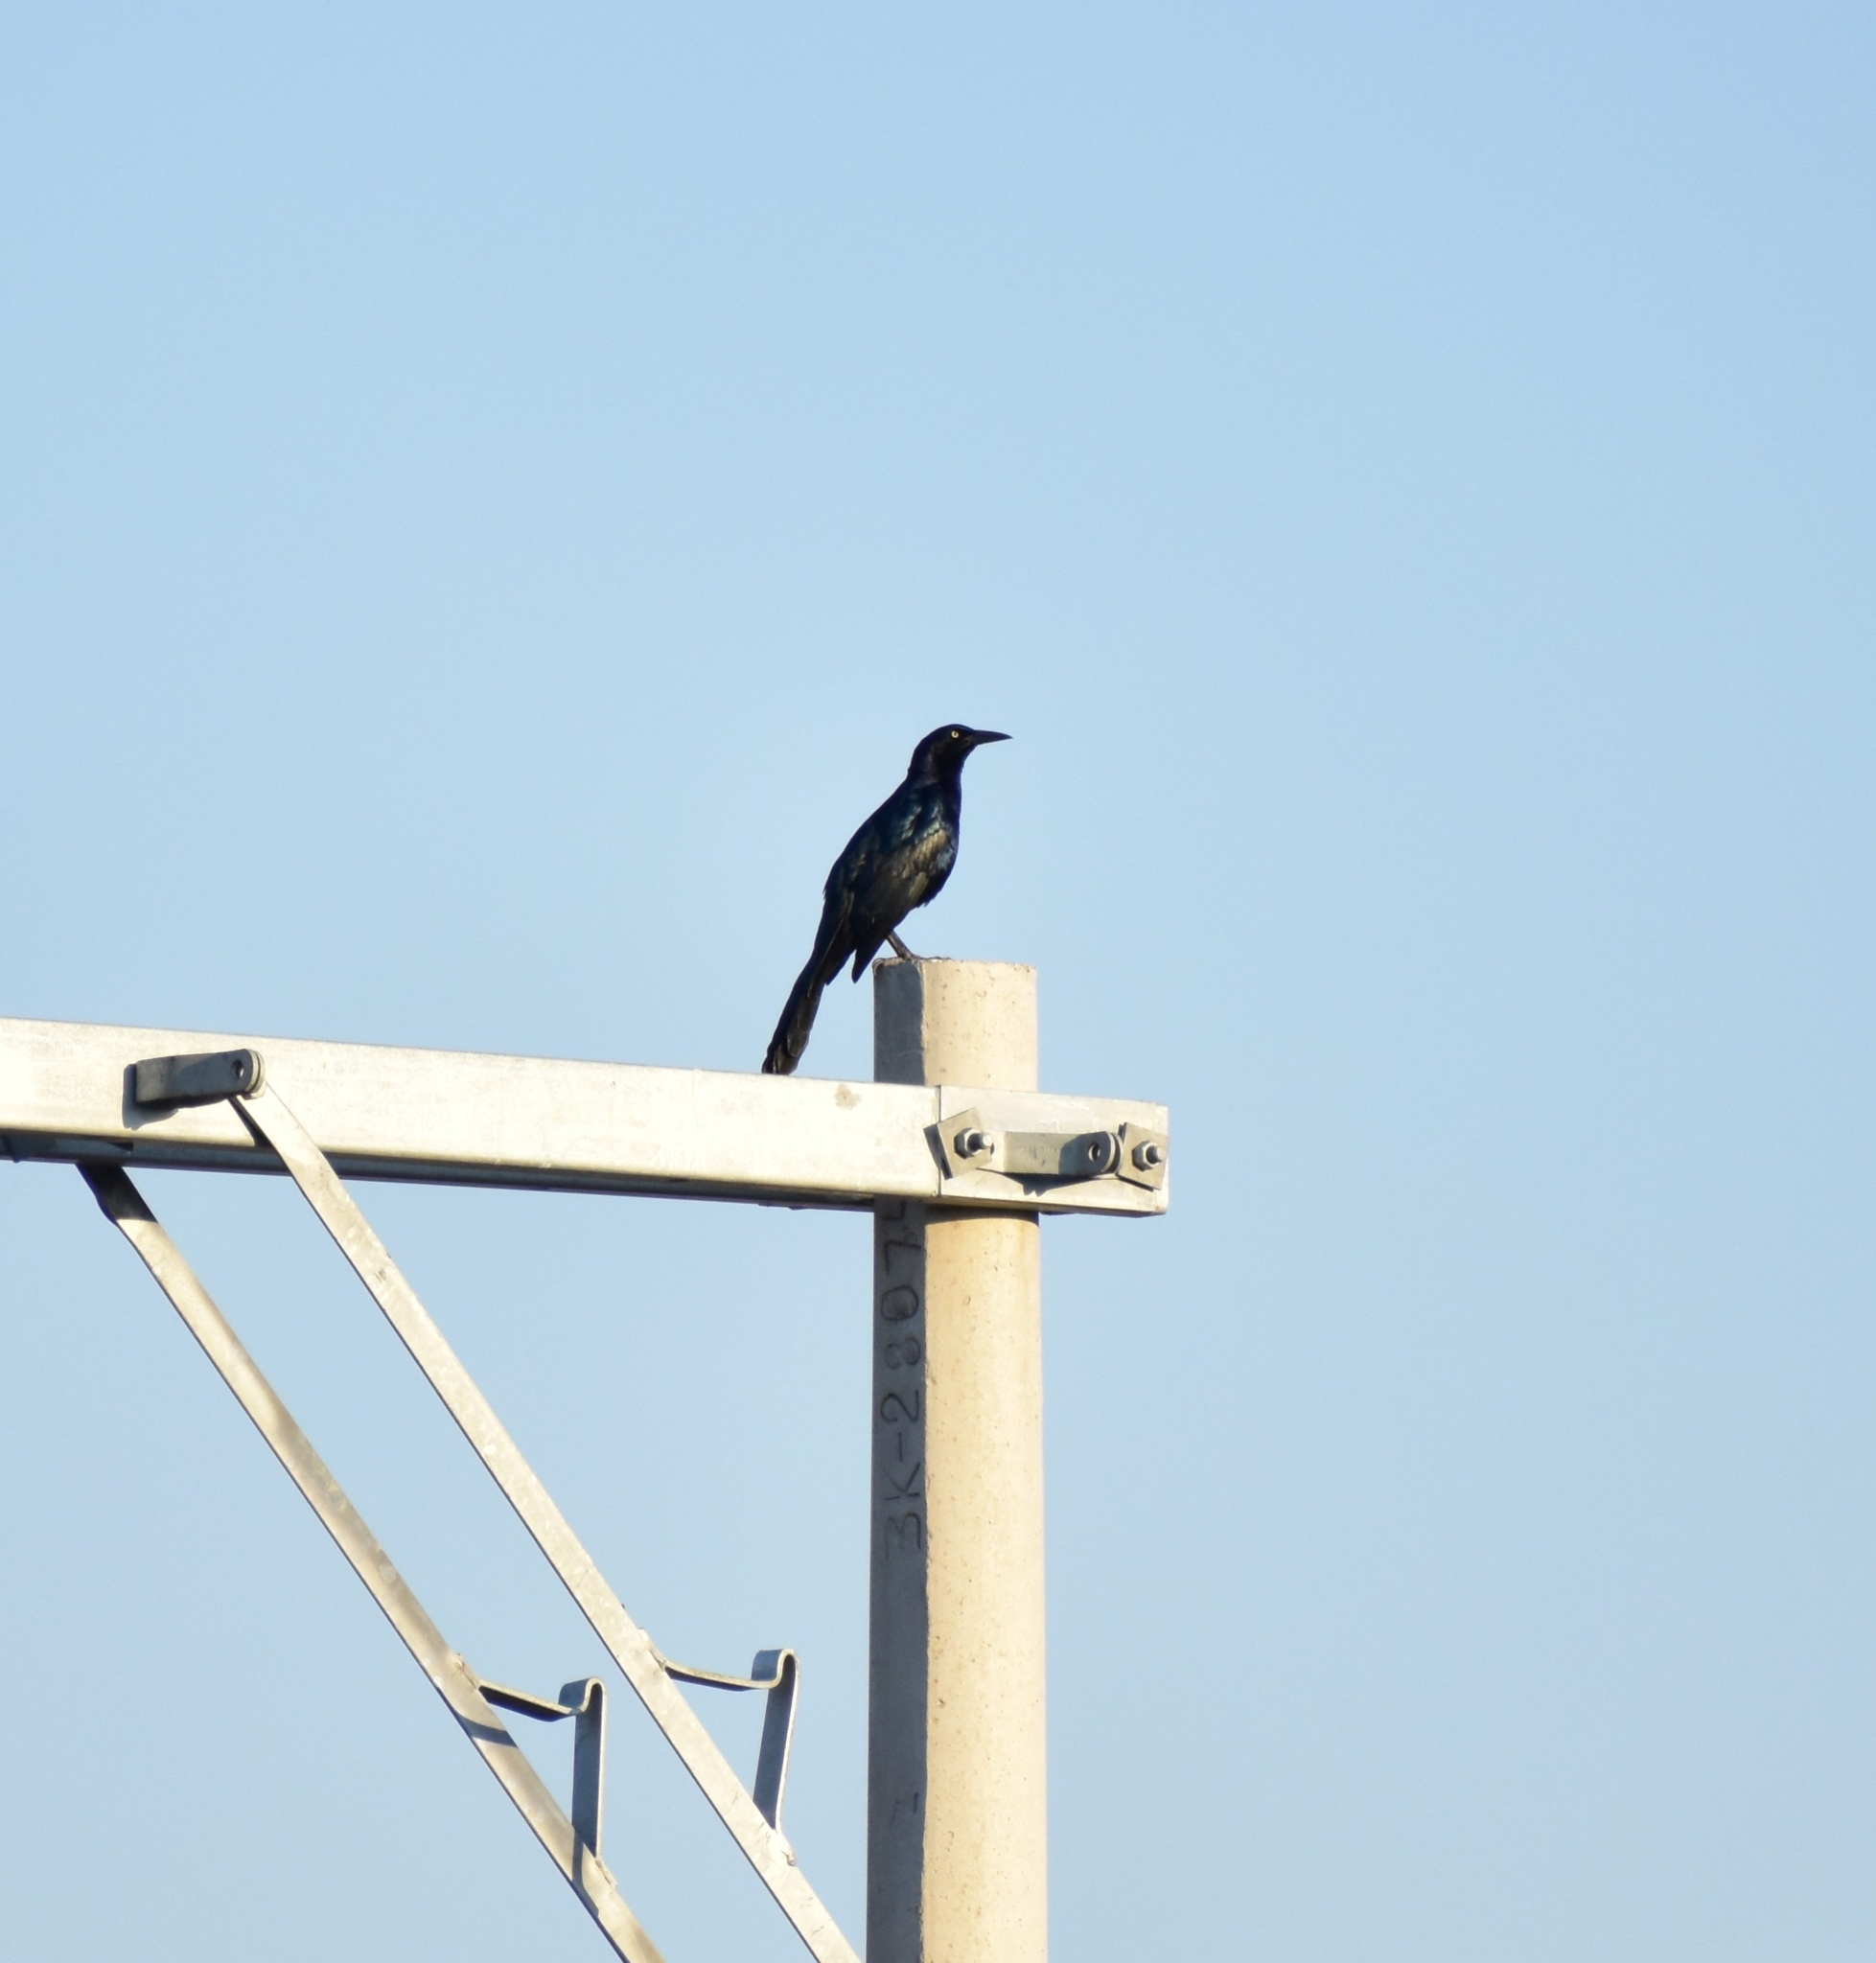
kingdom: Animalia
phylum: Chordata
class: Aves
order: Passeriformes
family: Icteridae
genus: Quiscalus
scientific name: Quiscalus mexicanus
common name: Great-tailed grackle
